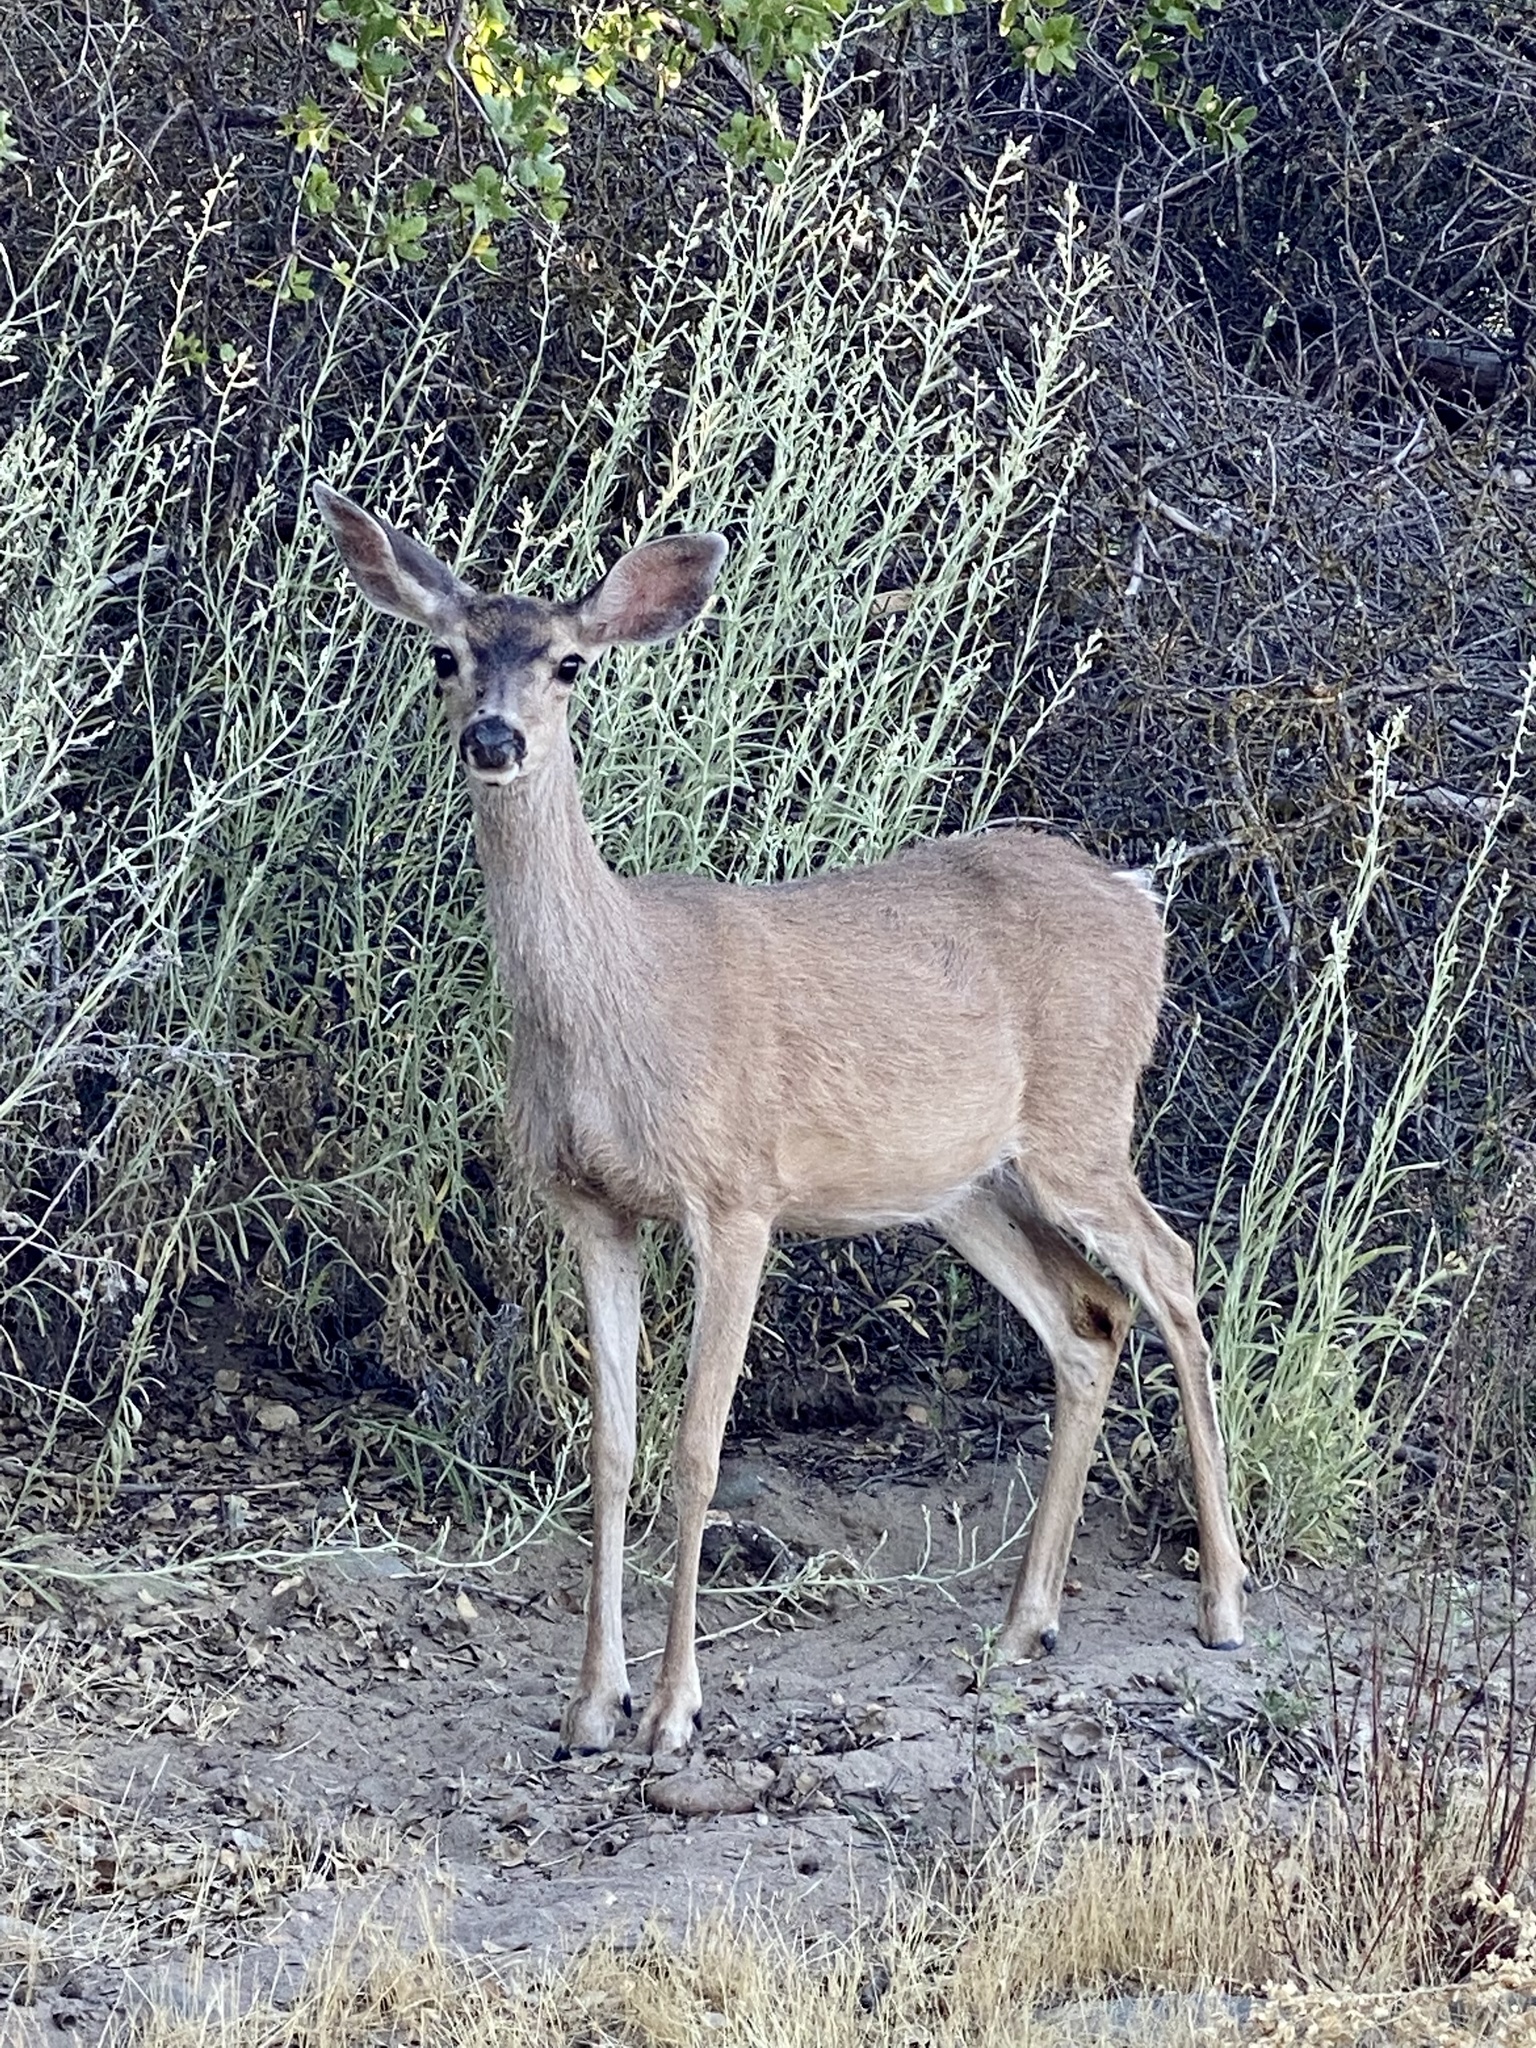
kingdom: Animalia
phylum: Chordata
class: Mammalia
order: Artiodactyla
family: Cervidae
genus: Odocoileus
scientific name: Odocoileus hemionus
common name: Mule deer
